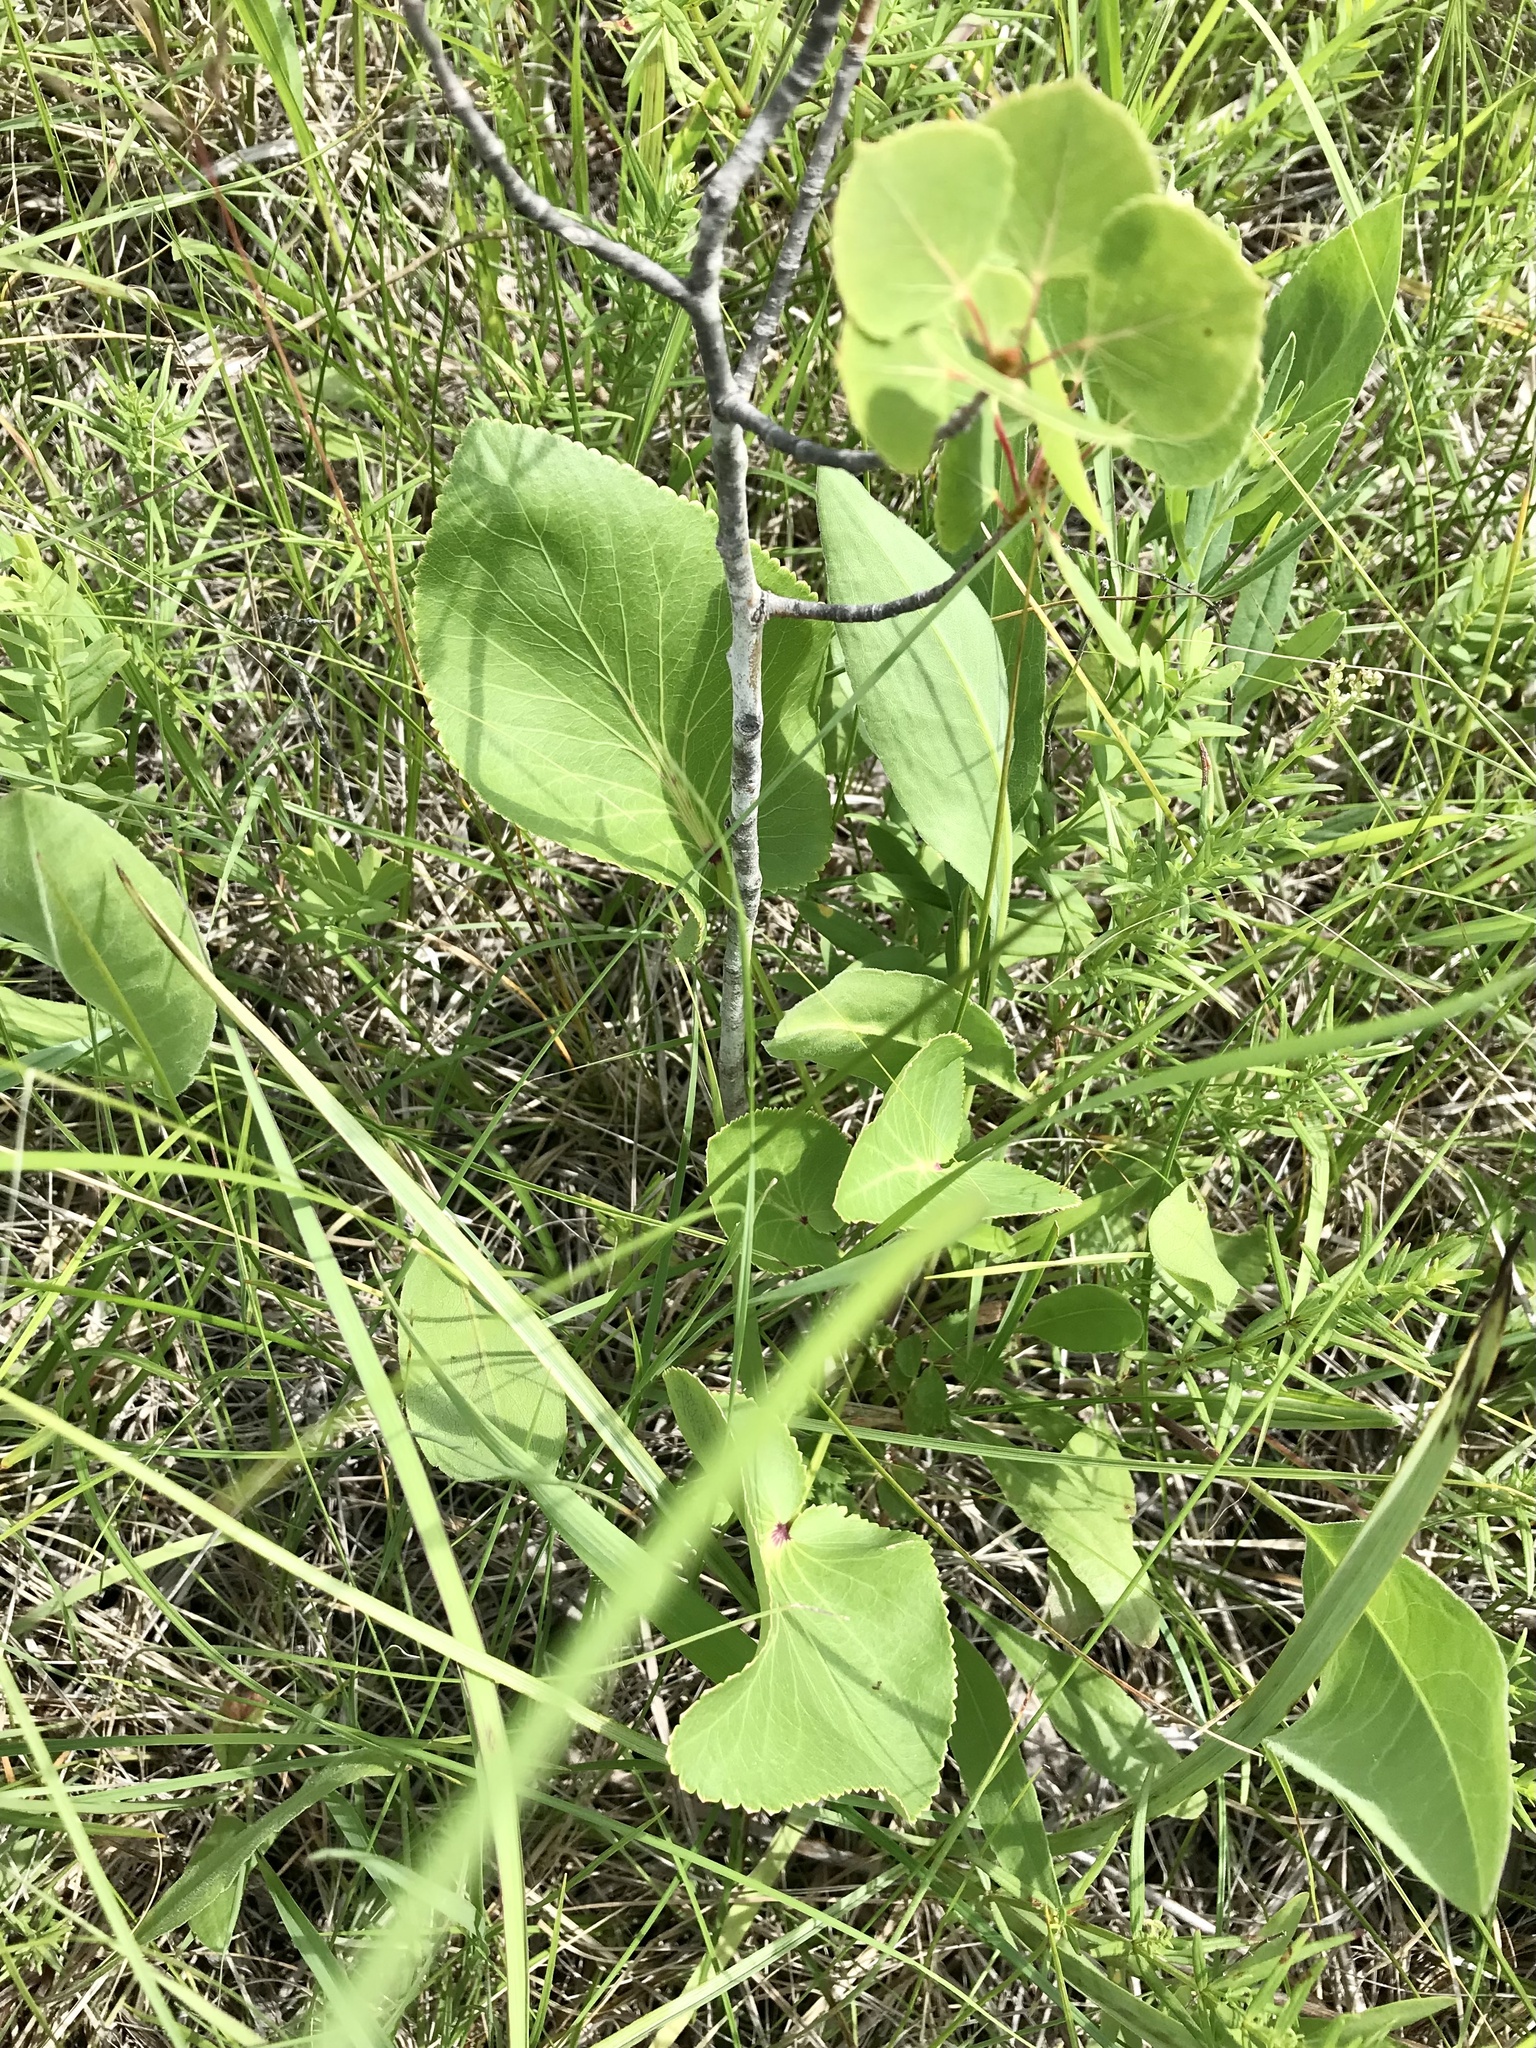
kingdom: Plantae
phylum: Tracheophyta
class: Magnoliopsida
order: Apiales
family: Apiaceae
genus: Zizia
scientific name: Zizia aptera
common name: Heart-leaved alexanders
